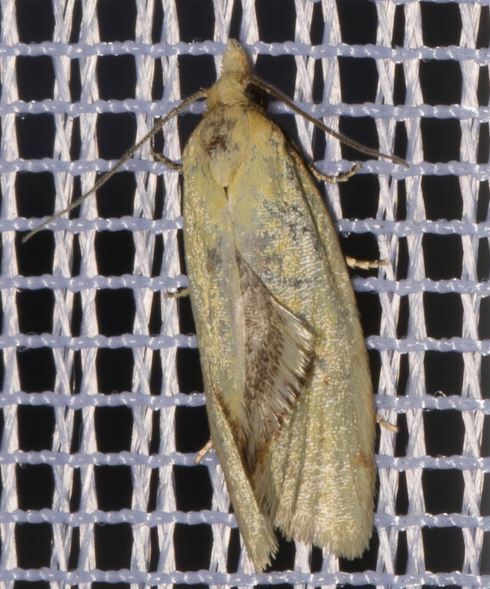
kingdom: Animalia
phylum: Arthropoda
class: Insecta
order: Lepidoptera
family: Tortricidae
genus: Agapeta
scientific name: Agapeta hamana
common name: Common yellow conch
